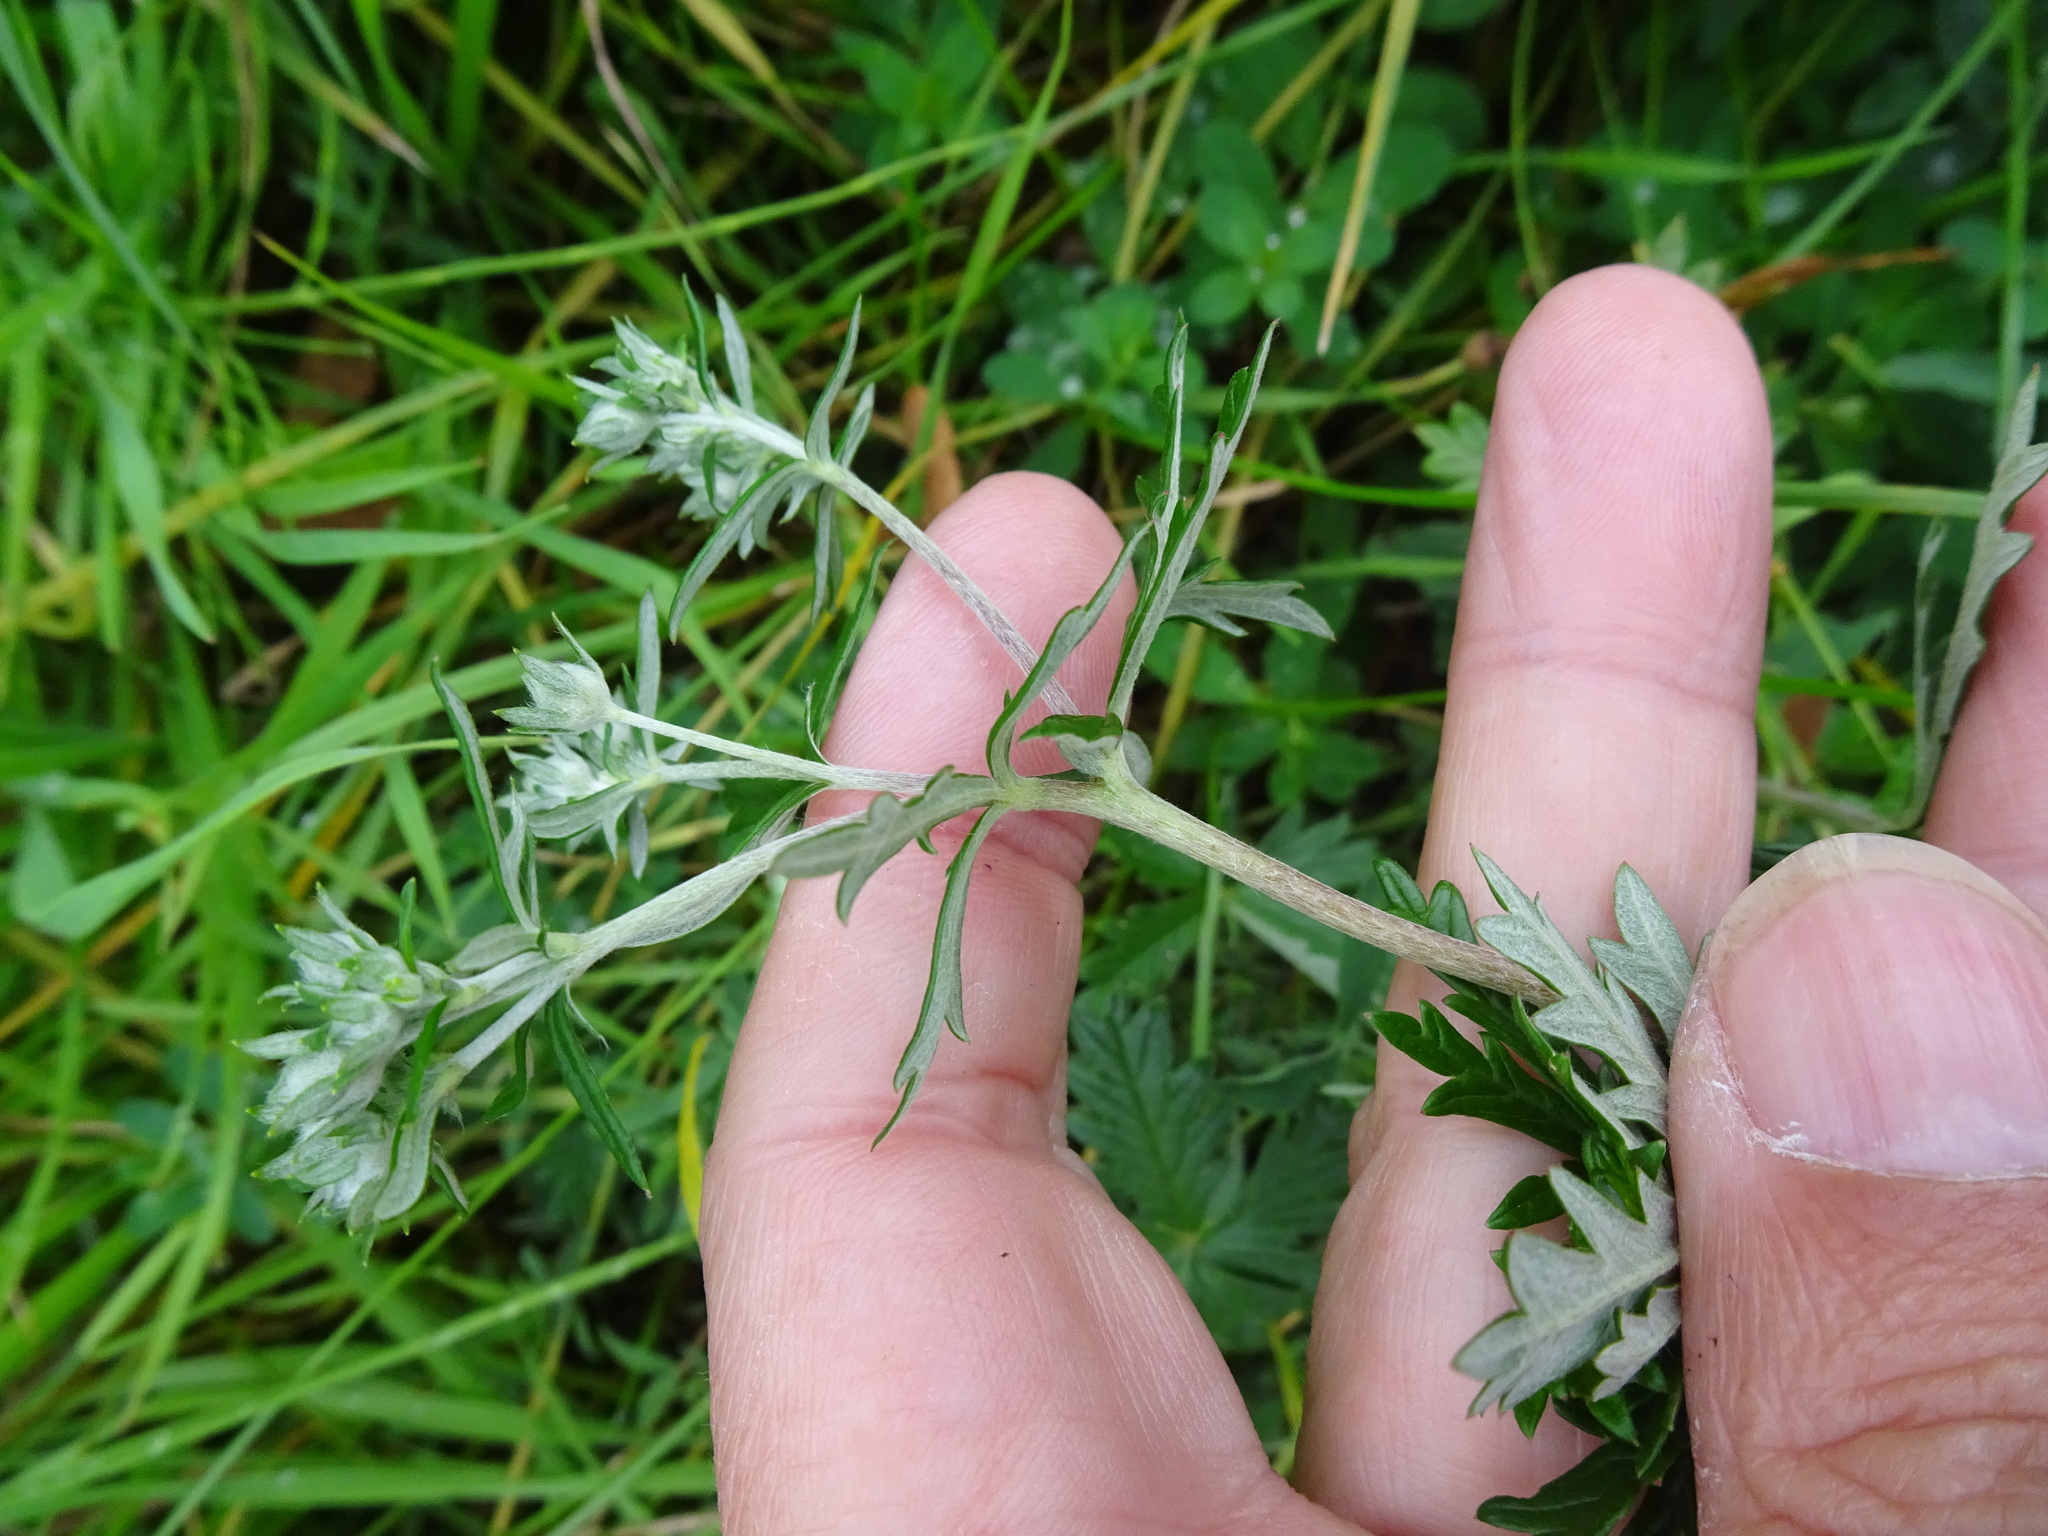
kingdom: Plantae
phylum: Tracheophyta
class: Magnoliopsida
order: Rosales
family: Rosaceae
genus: Potentilla
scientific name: Potentilla argentea
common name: Hoary cinquefoil
